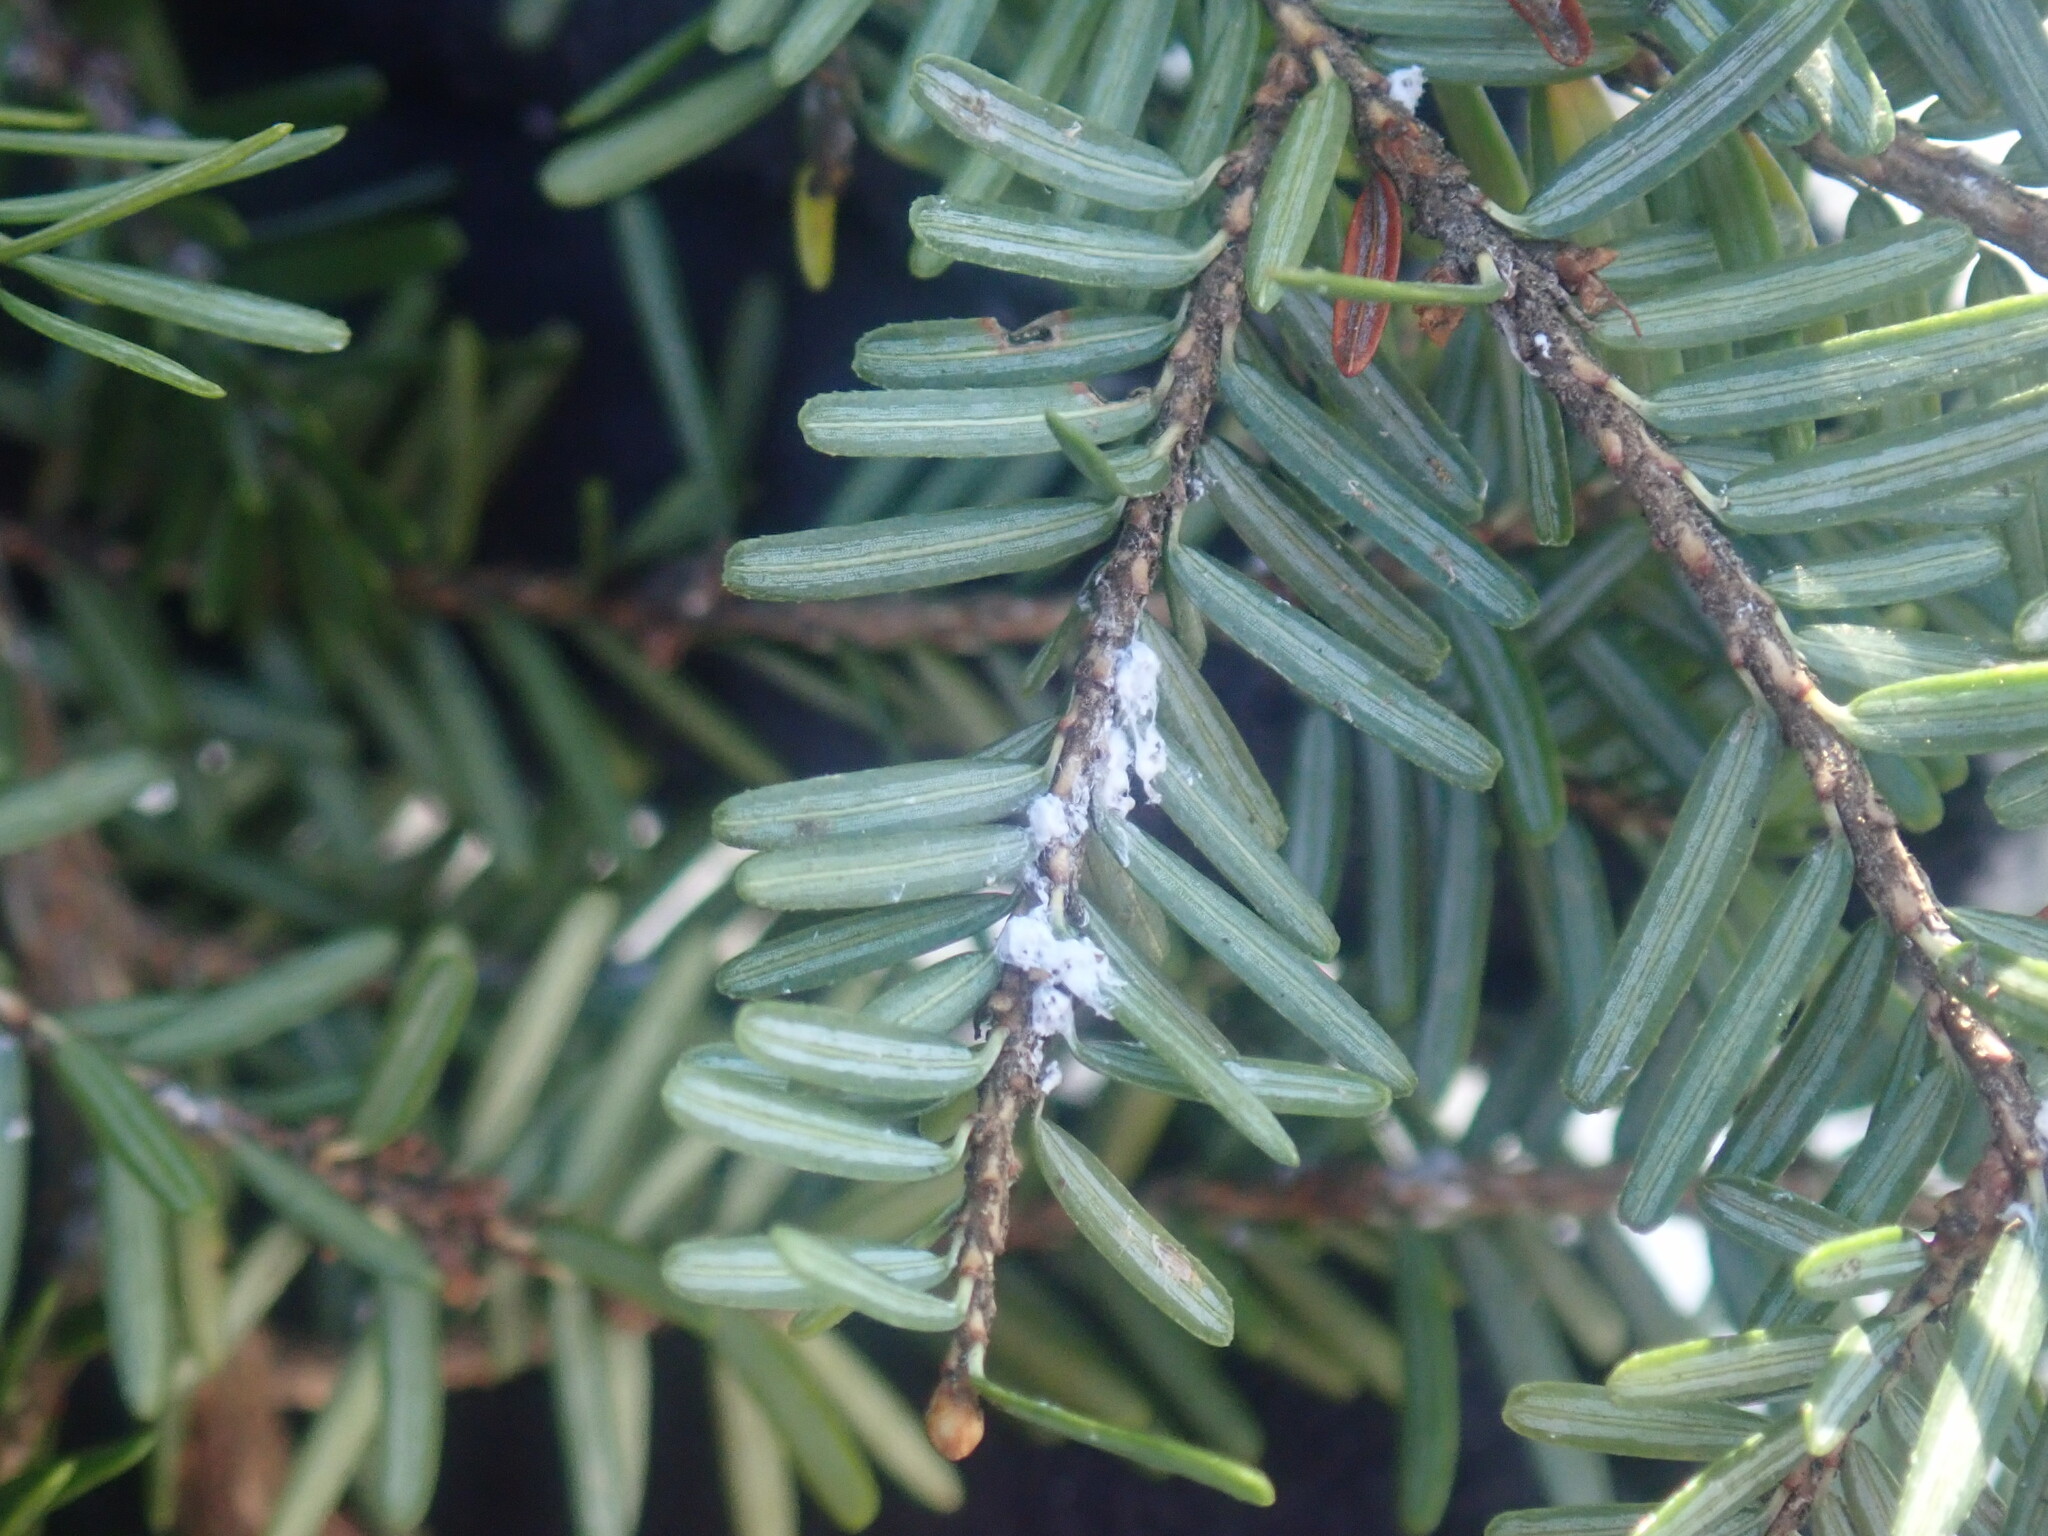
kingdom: Animalia
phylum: Arthropoda
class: Insecta
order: Hemiptera
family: Adelgidae
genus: Adelges
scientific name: Adelges tsugae
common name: Hemlock woolly adelgid
